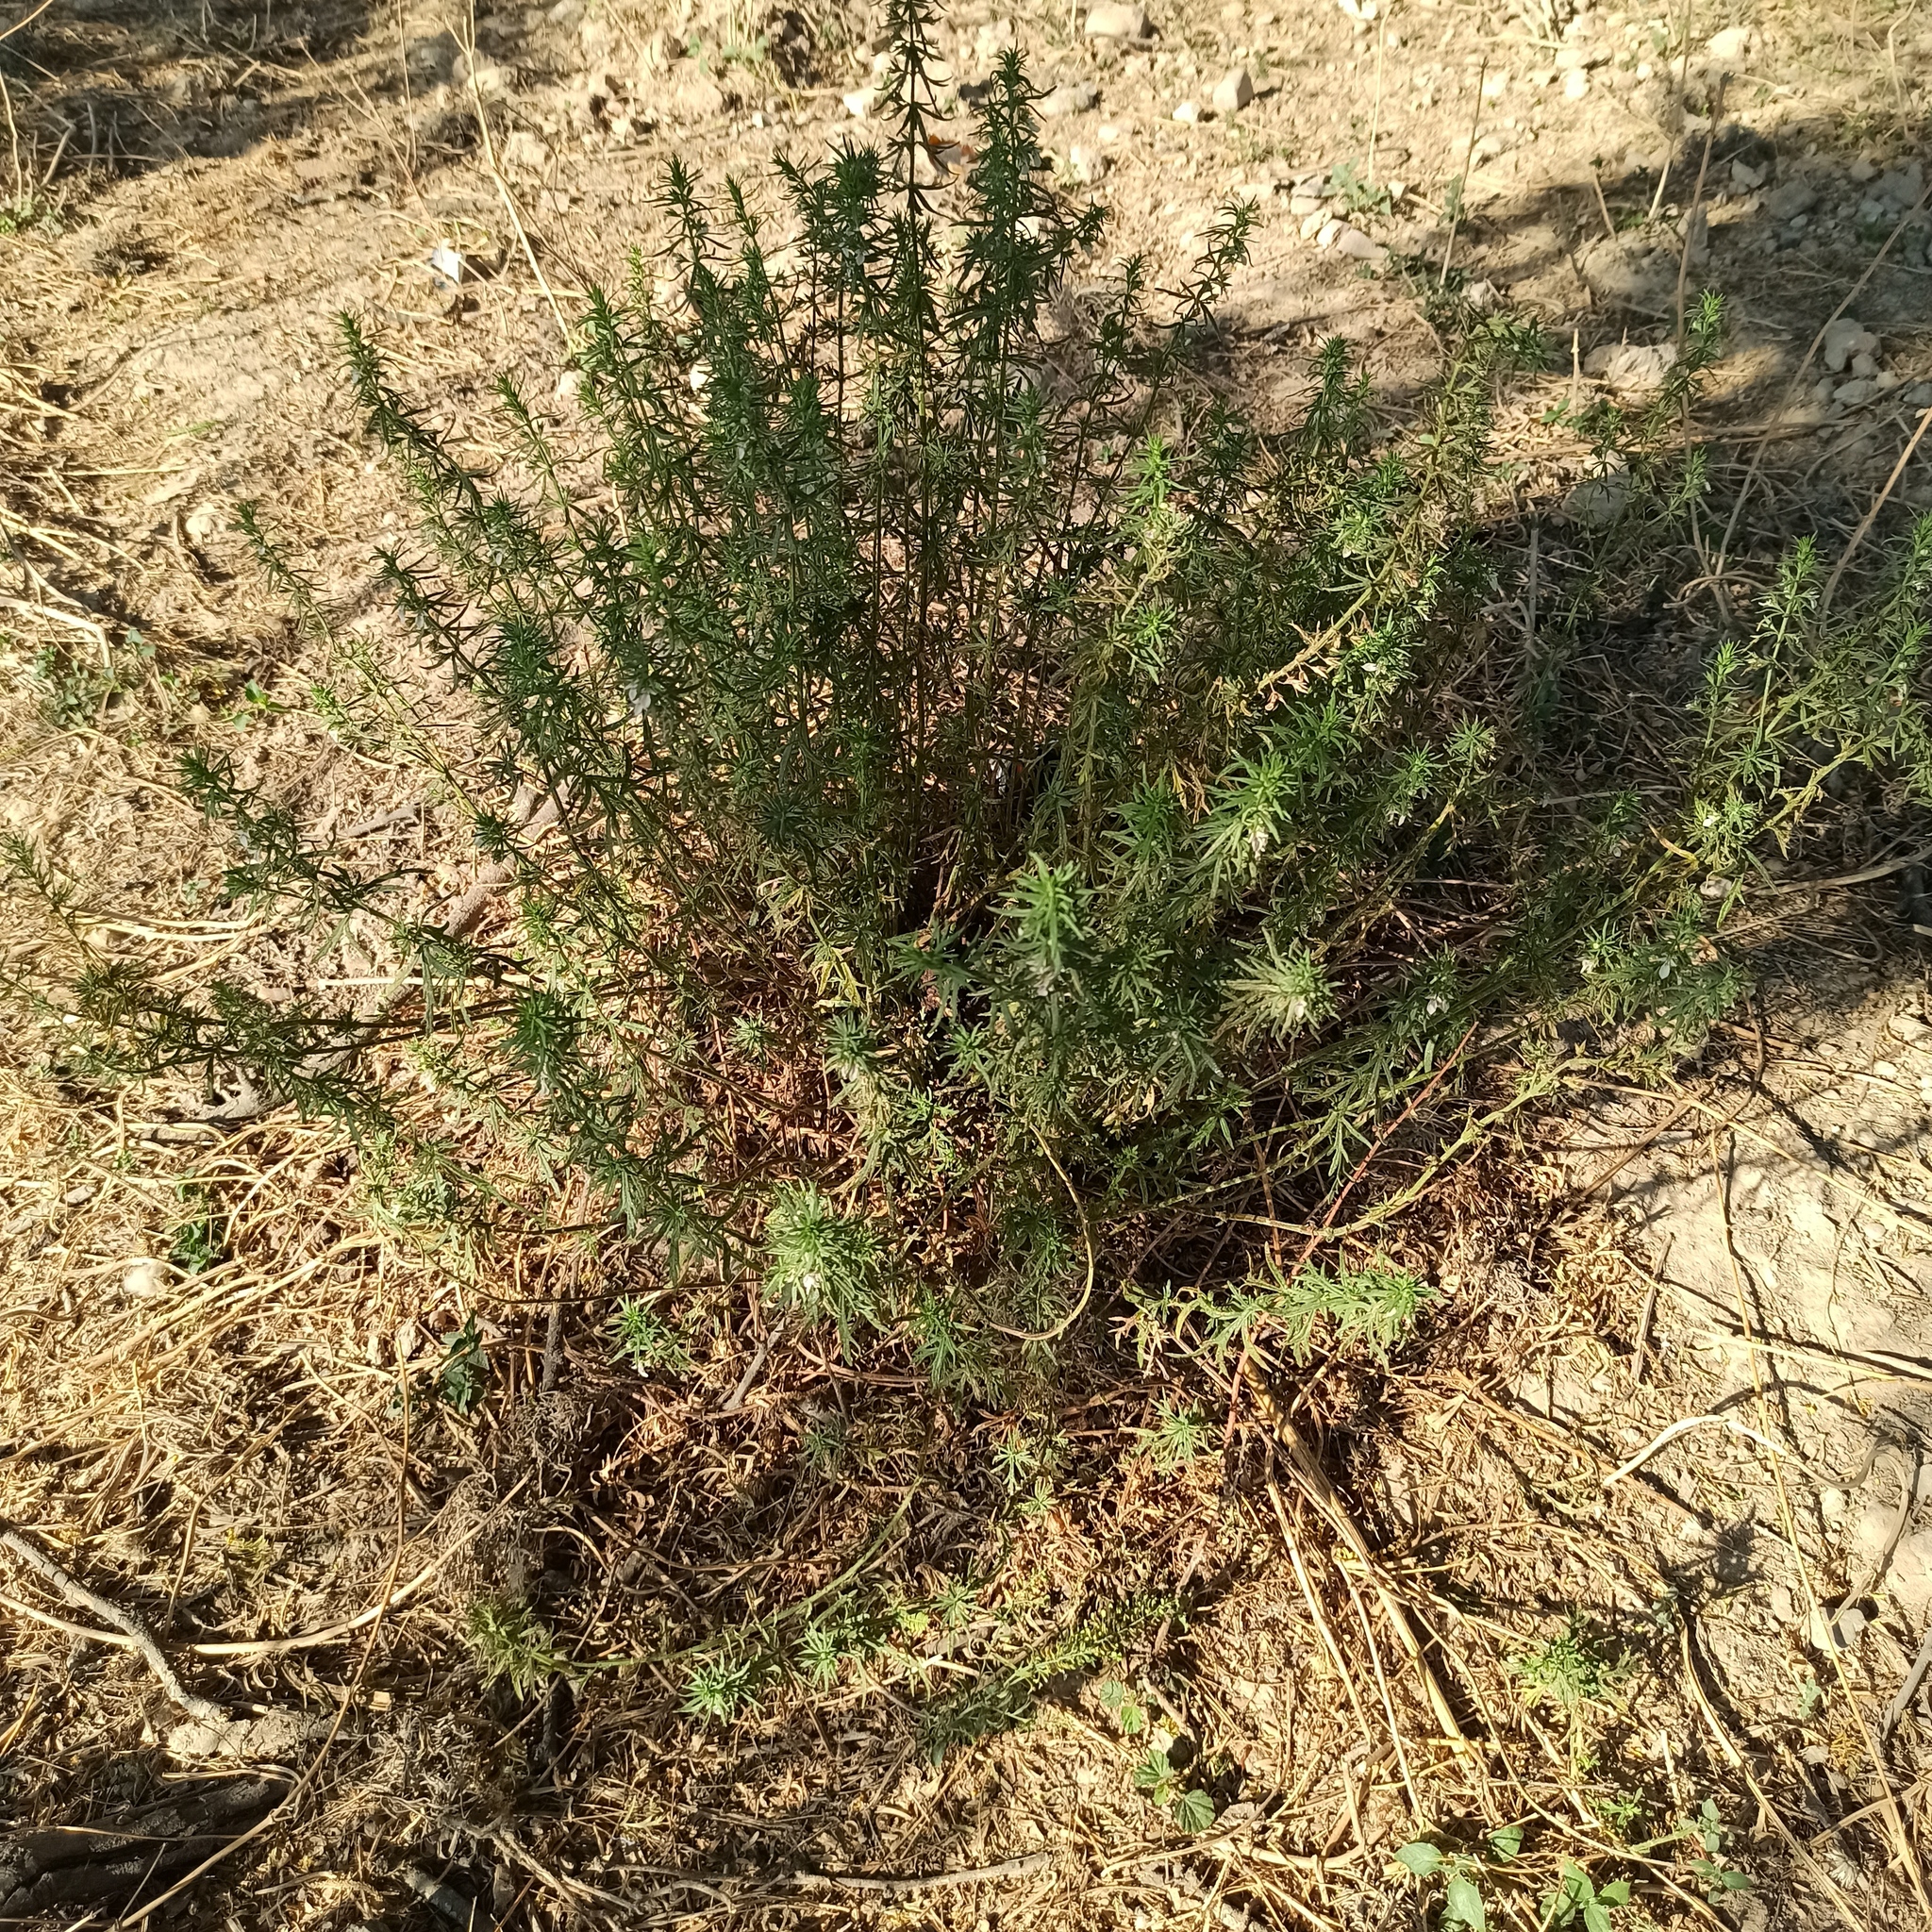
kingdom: Plantae
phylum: Tracheophyta
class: Magnoliopsida
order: Lamiales
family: Lamiaceae
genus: Teucrium
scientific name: Teucrium cubense
